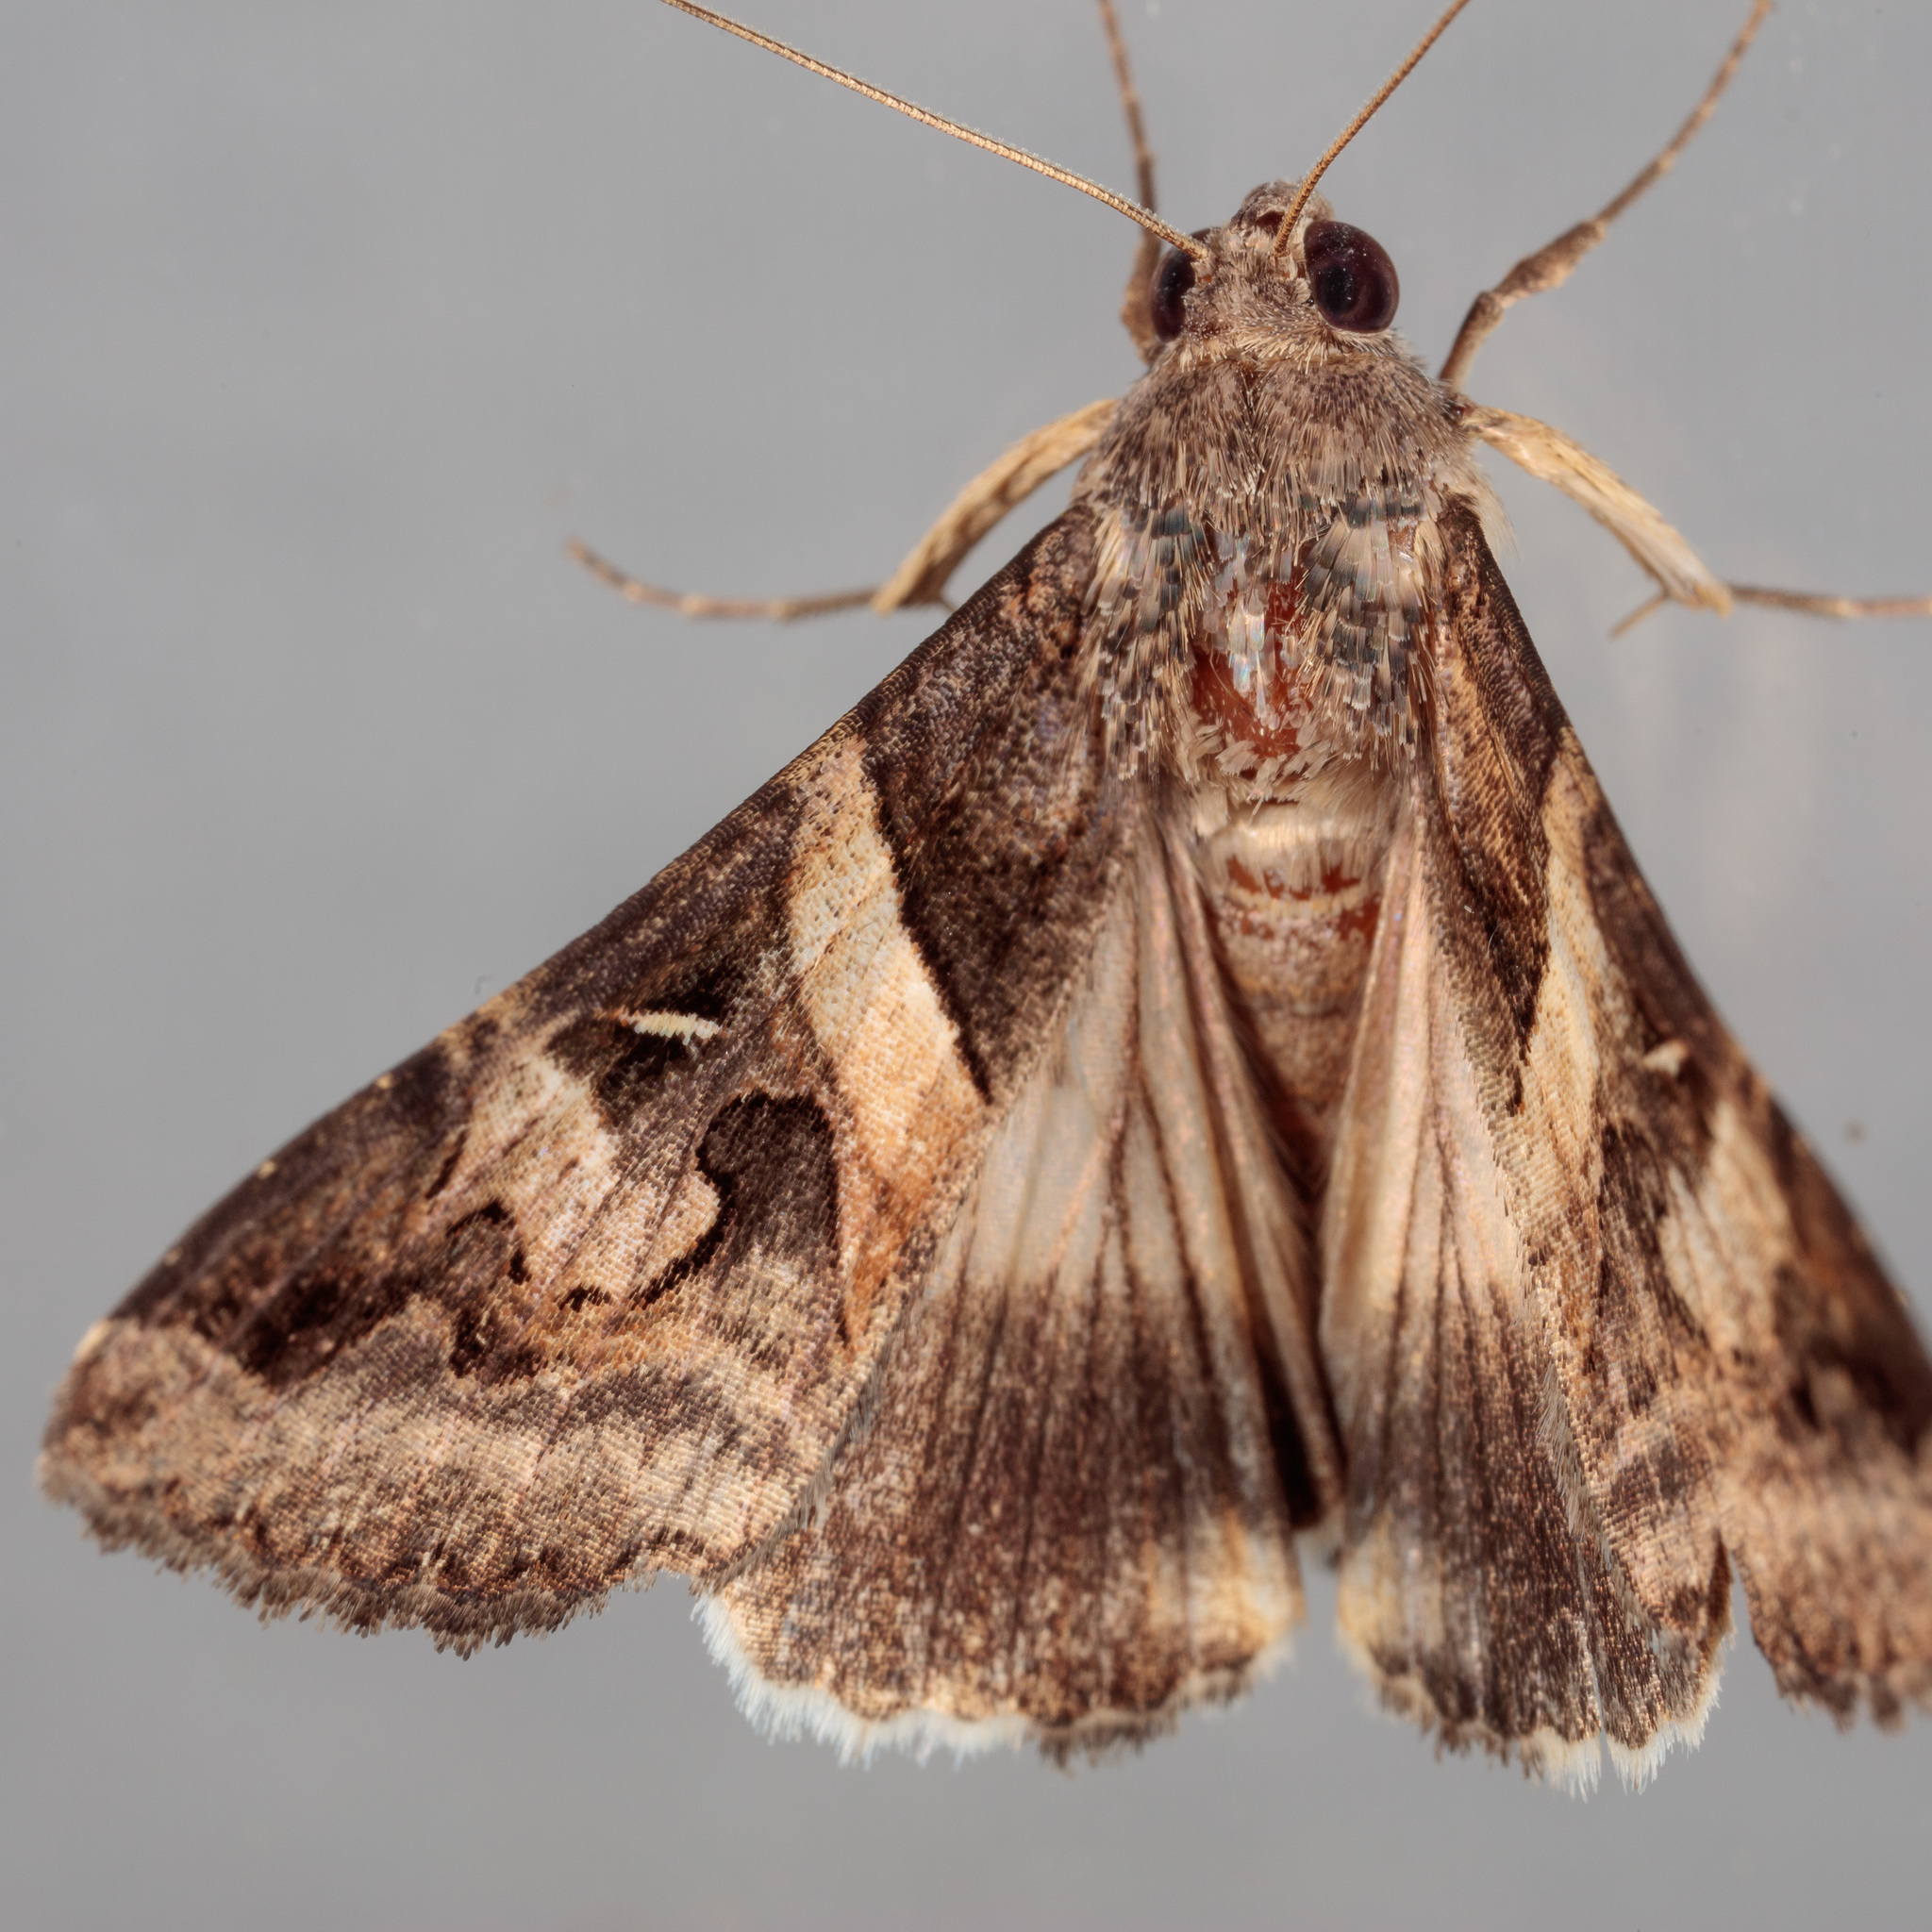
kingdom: Animalia
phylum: Arthropoda
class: Insecta
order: Lepidoptera
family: Erebidae
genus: Melipotis
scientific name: Melipotis indomita
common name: Moth
